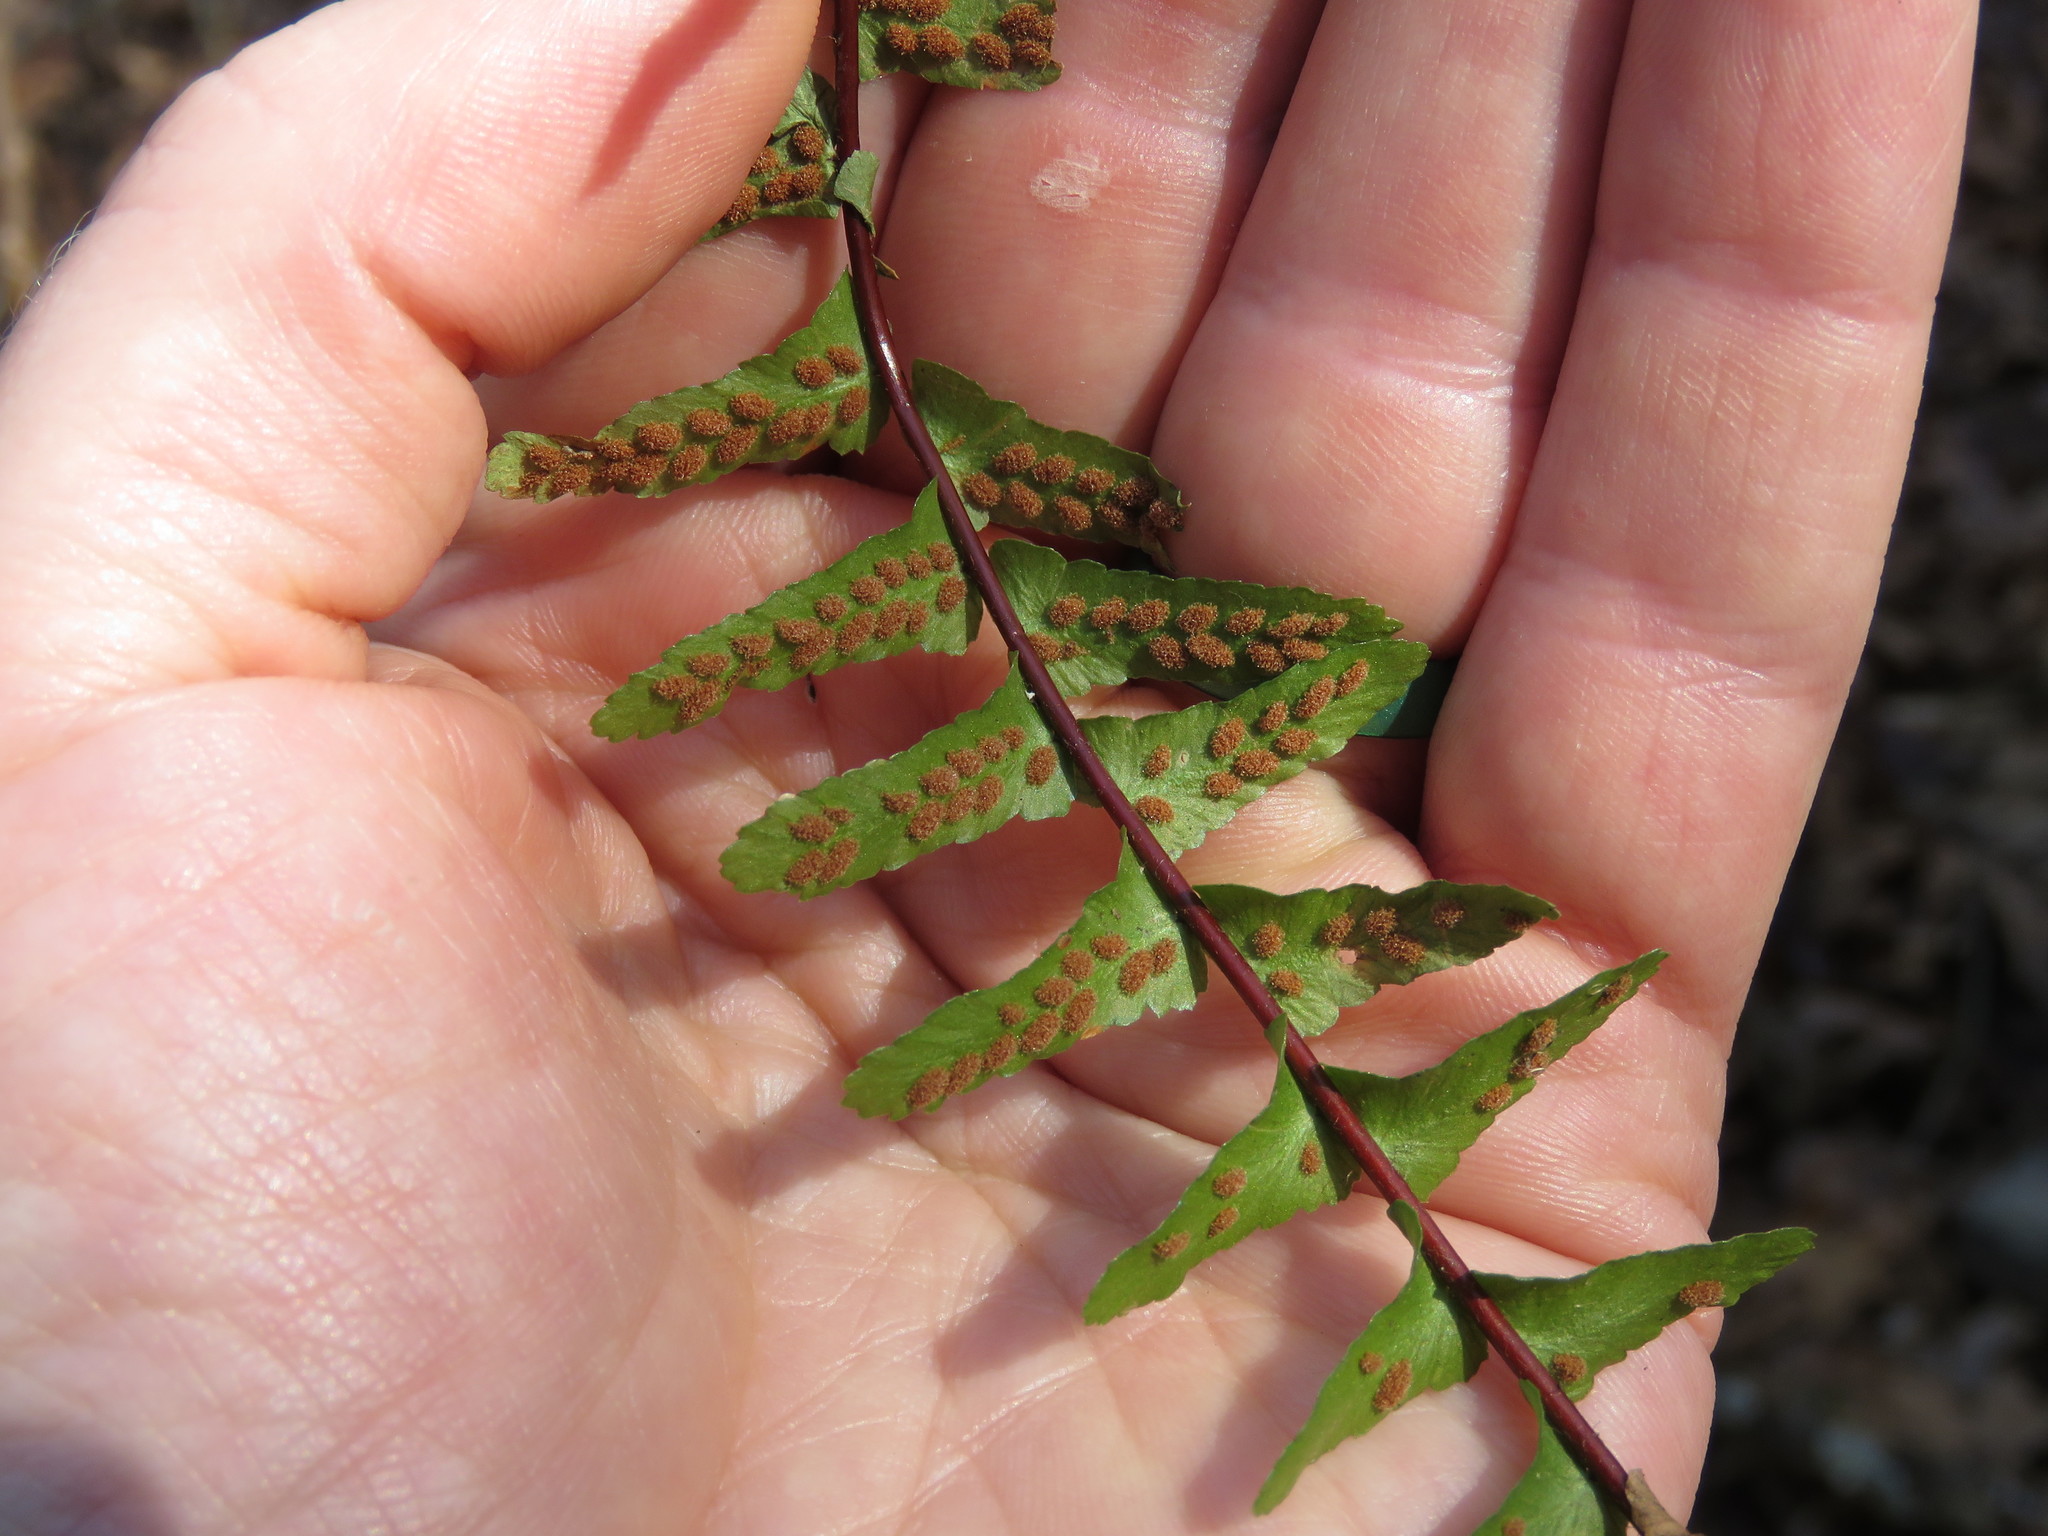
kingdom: Plantae
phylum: Tracheophyta
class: Polypodiopsida
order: Polypodiales
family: Aspleniaceae
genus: Asplenium
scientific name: Asplenium platyneuron
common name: Ebony spleenwort
